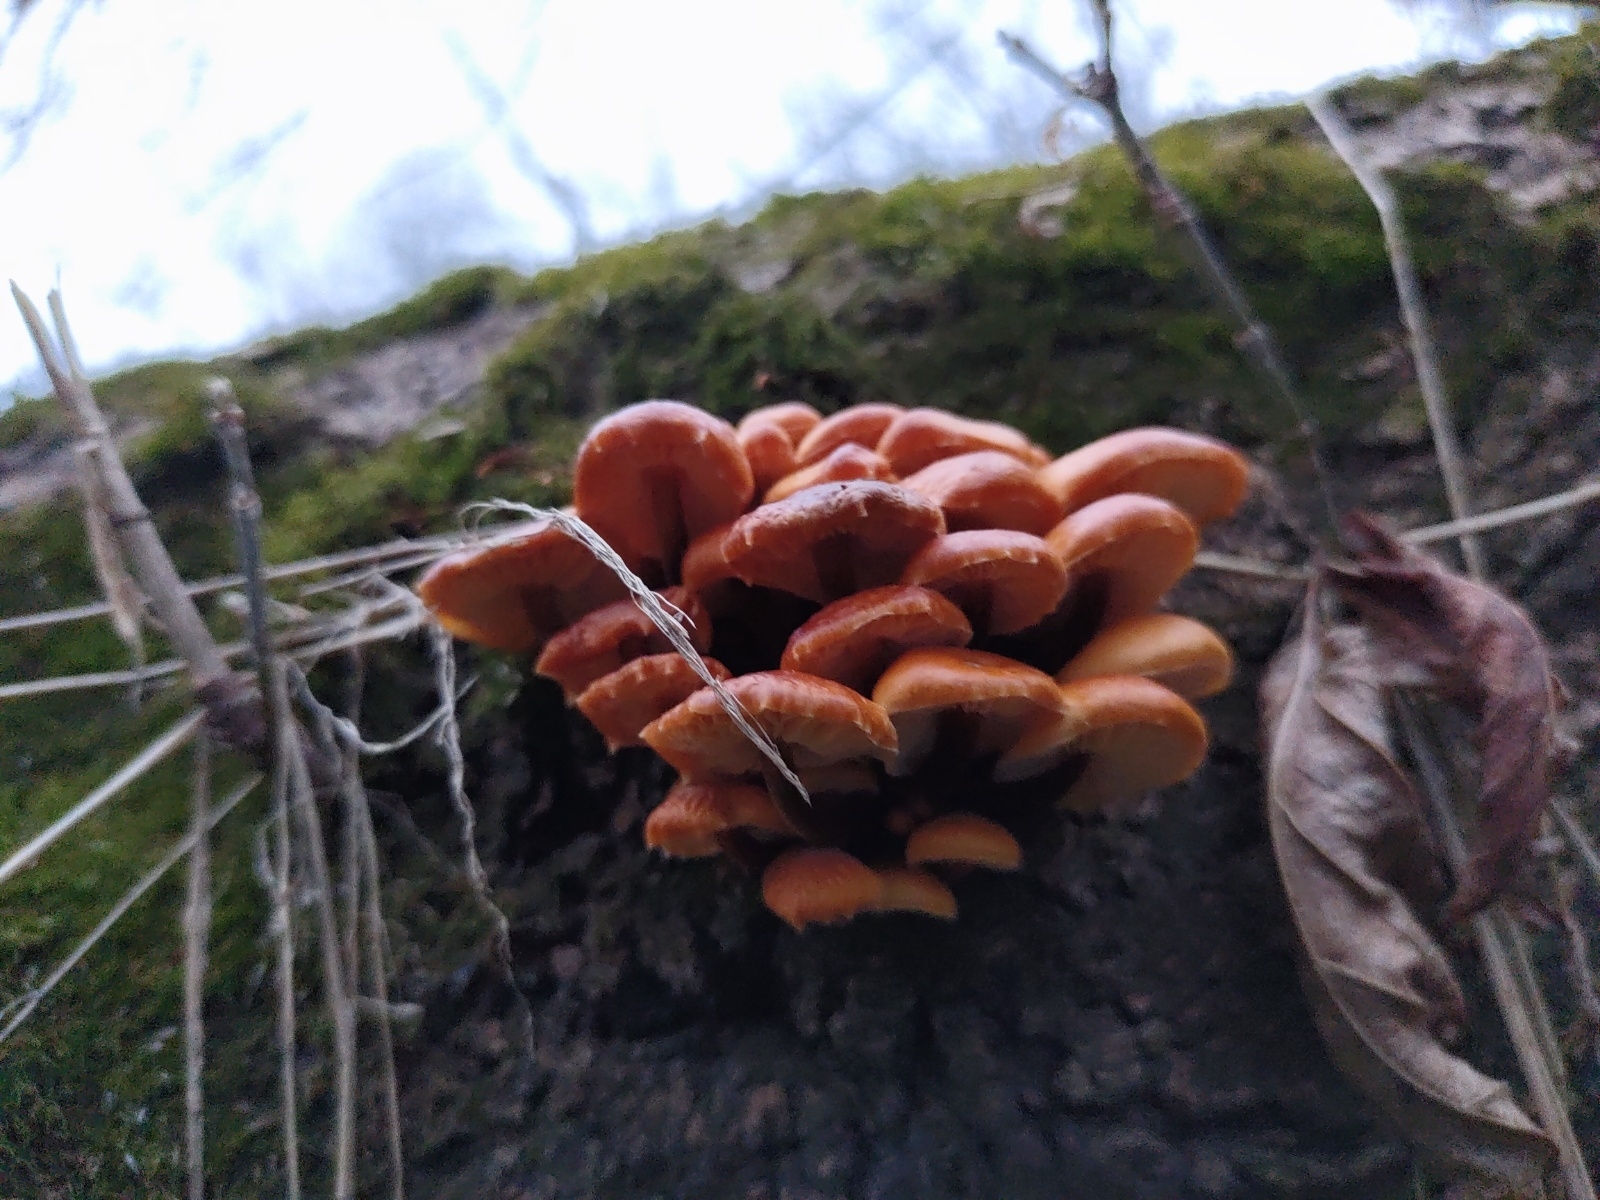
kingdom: Fungi
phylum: Basidiomycota
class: Agaricomycetes
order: Agaricales
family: Physalacriaceae
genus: Flammulina
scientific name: Flammulina
